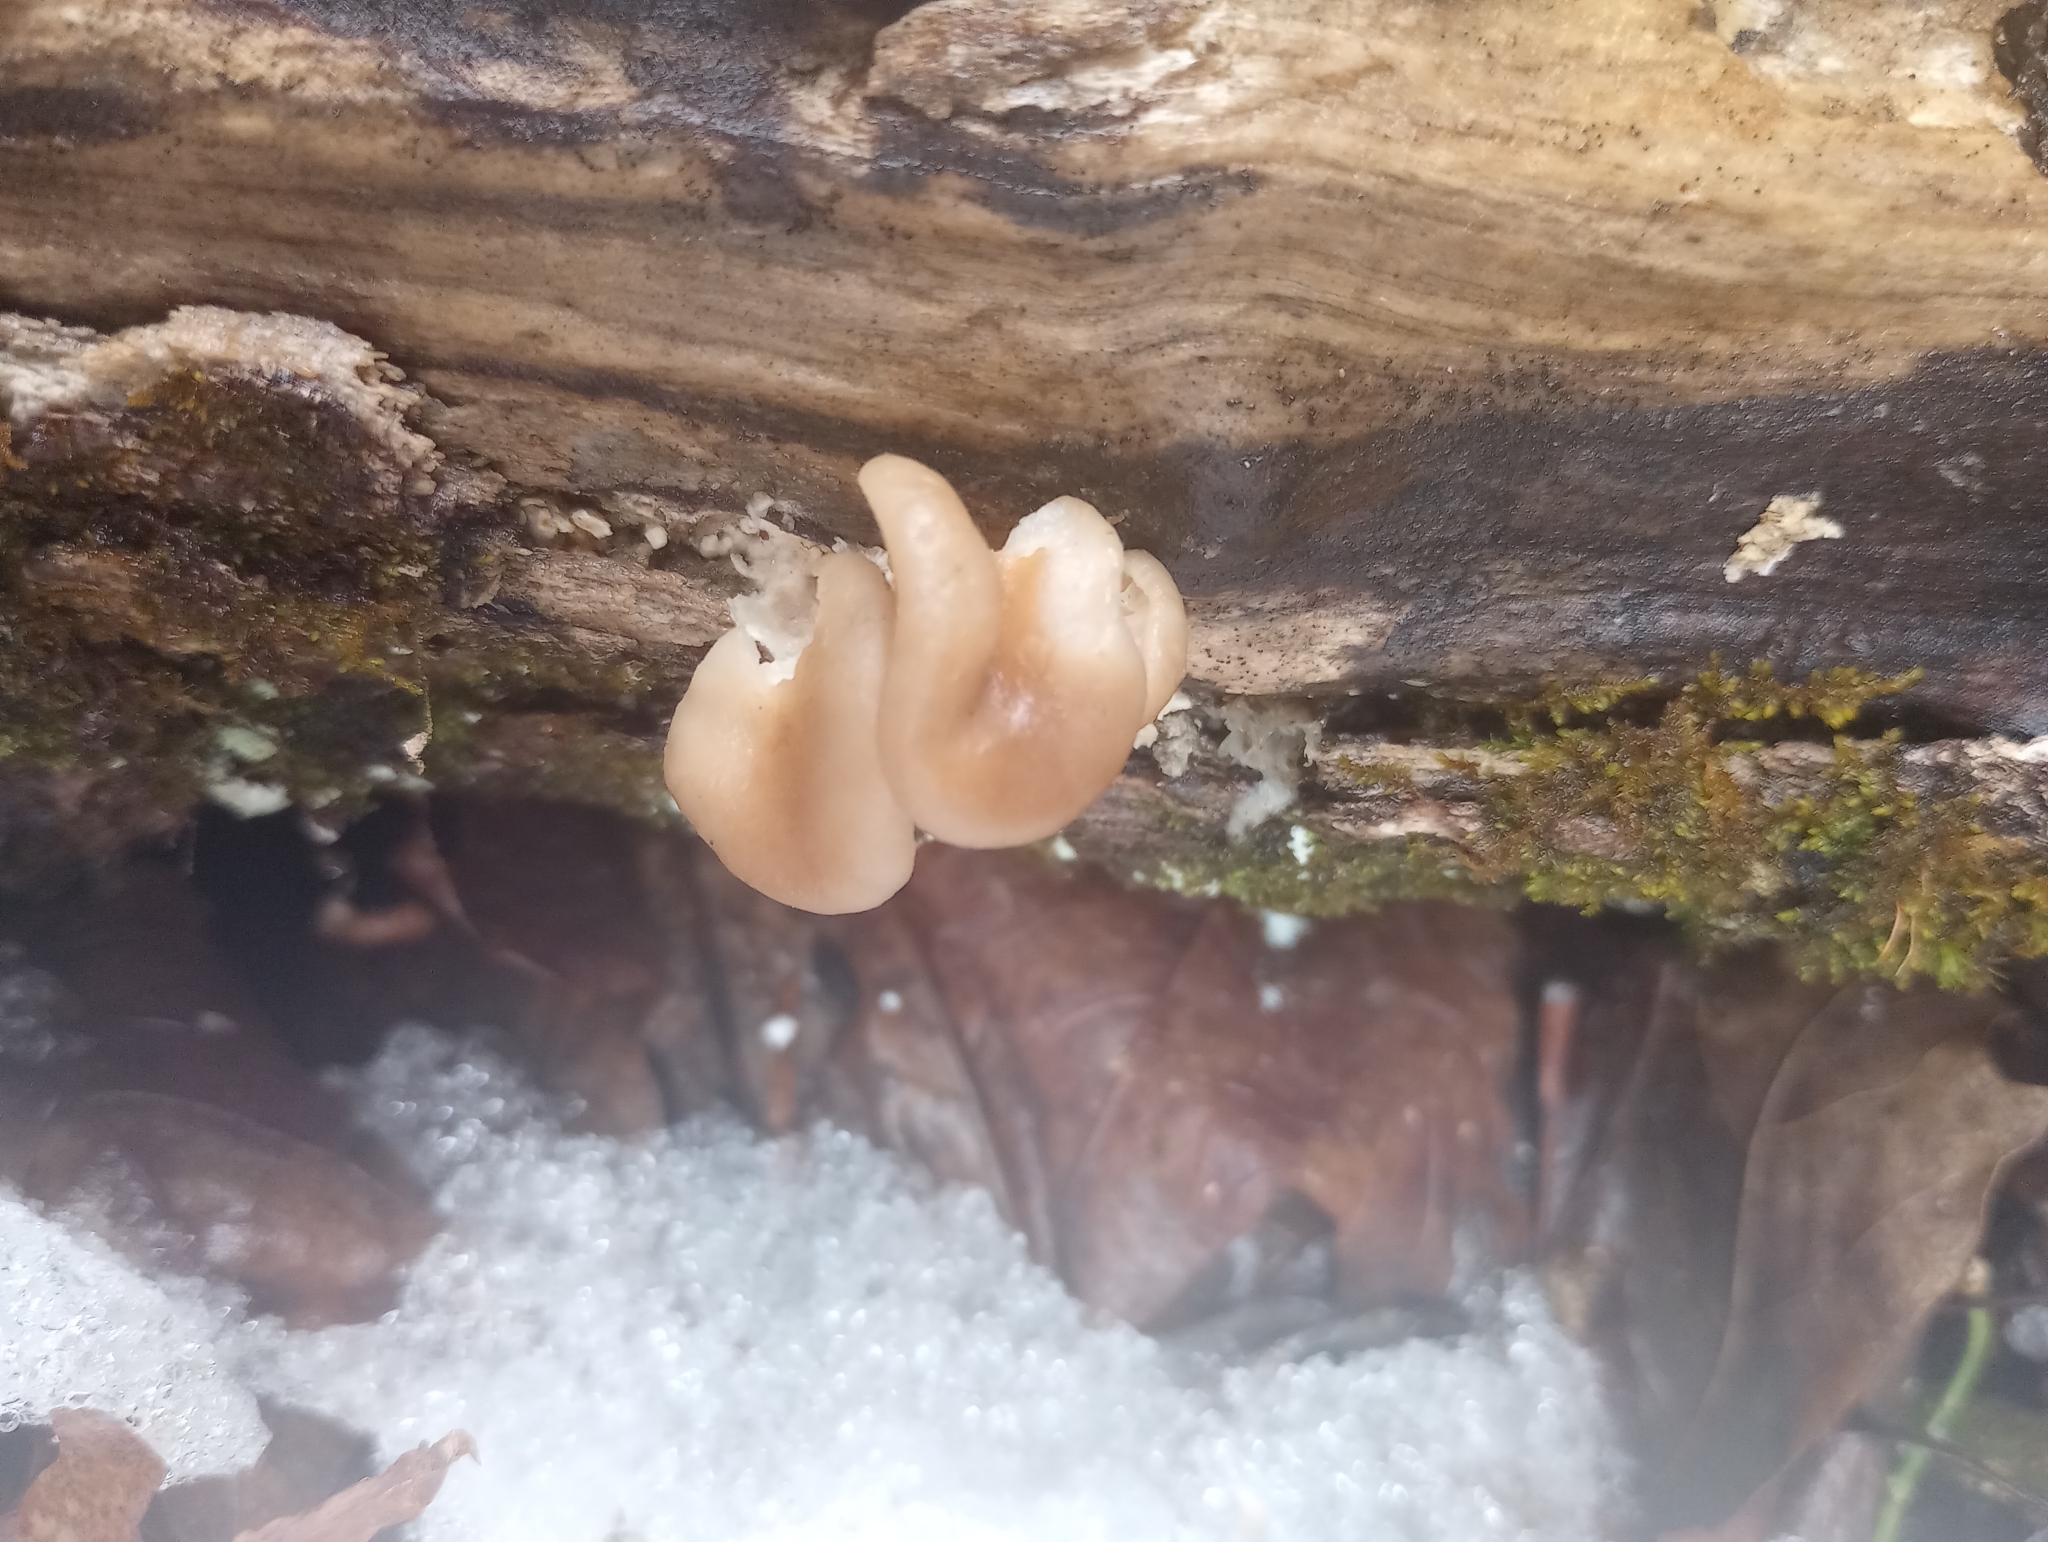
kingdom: Fungi
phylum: Basidiomycota
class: Agaricomycetes
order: Agaricales
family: Pleurotaceae
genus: Pleurotus
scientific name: Pleurotus ostreatus
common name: Oyster mushroom
